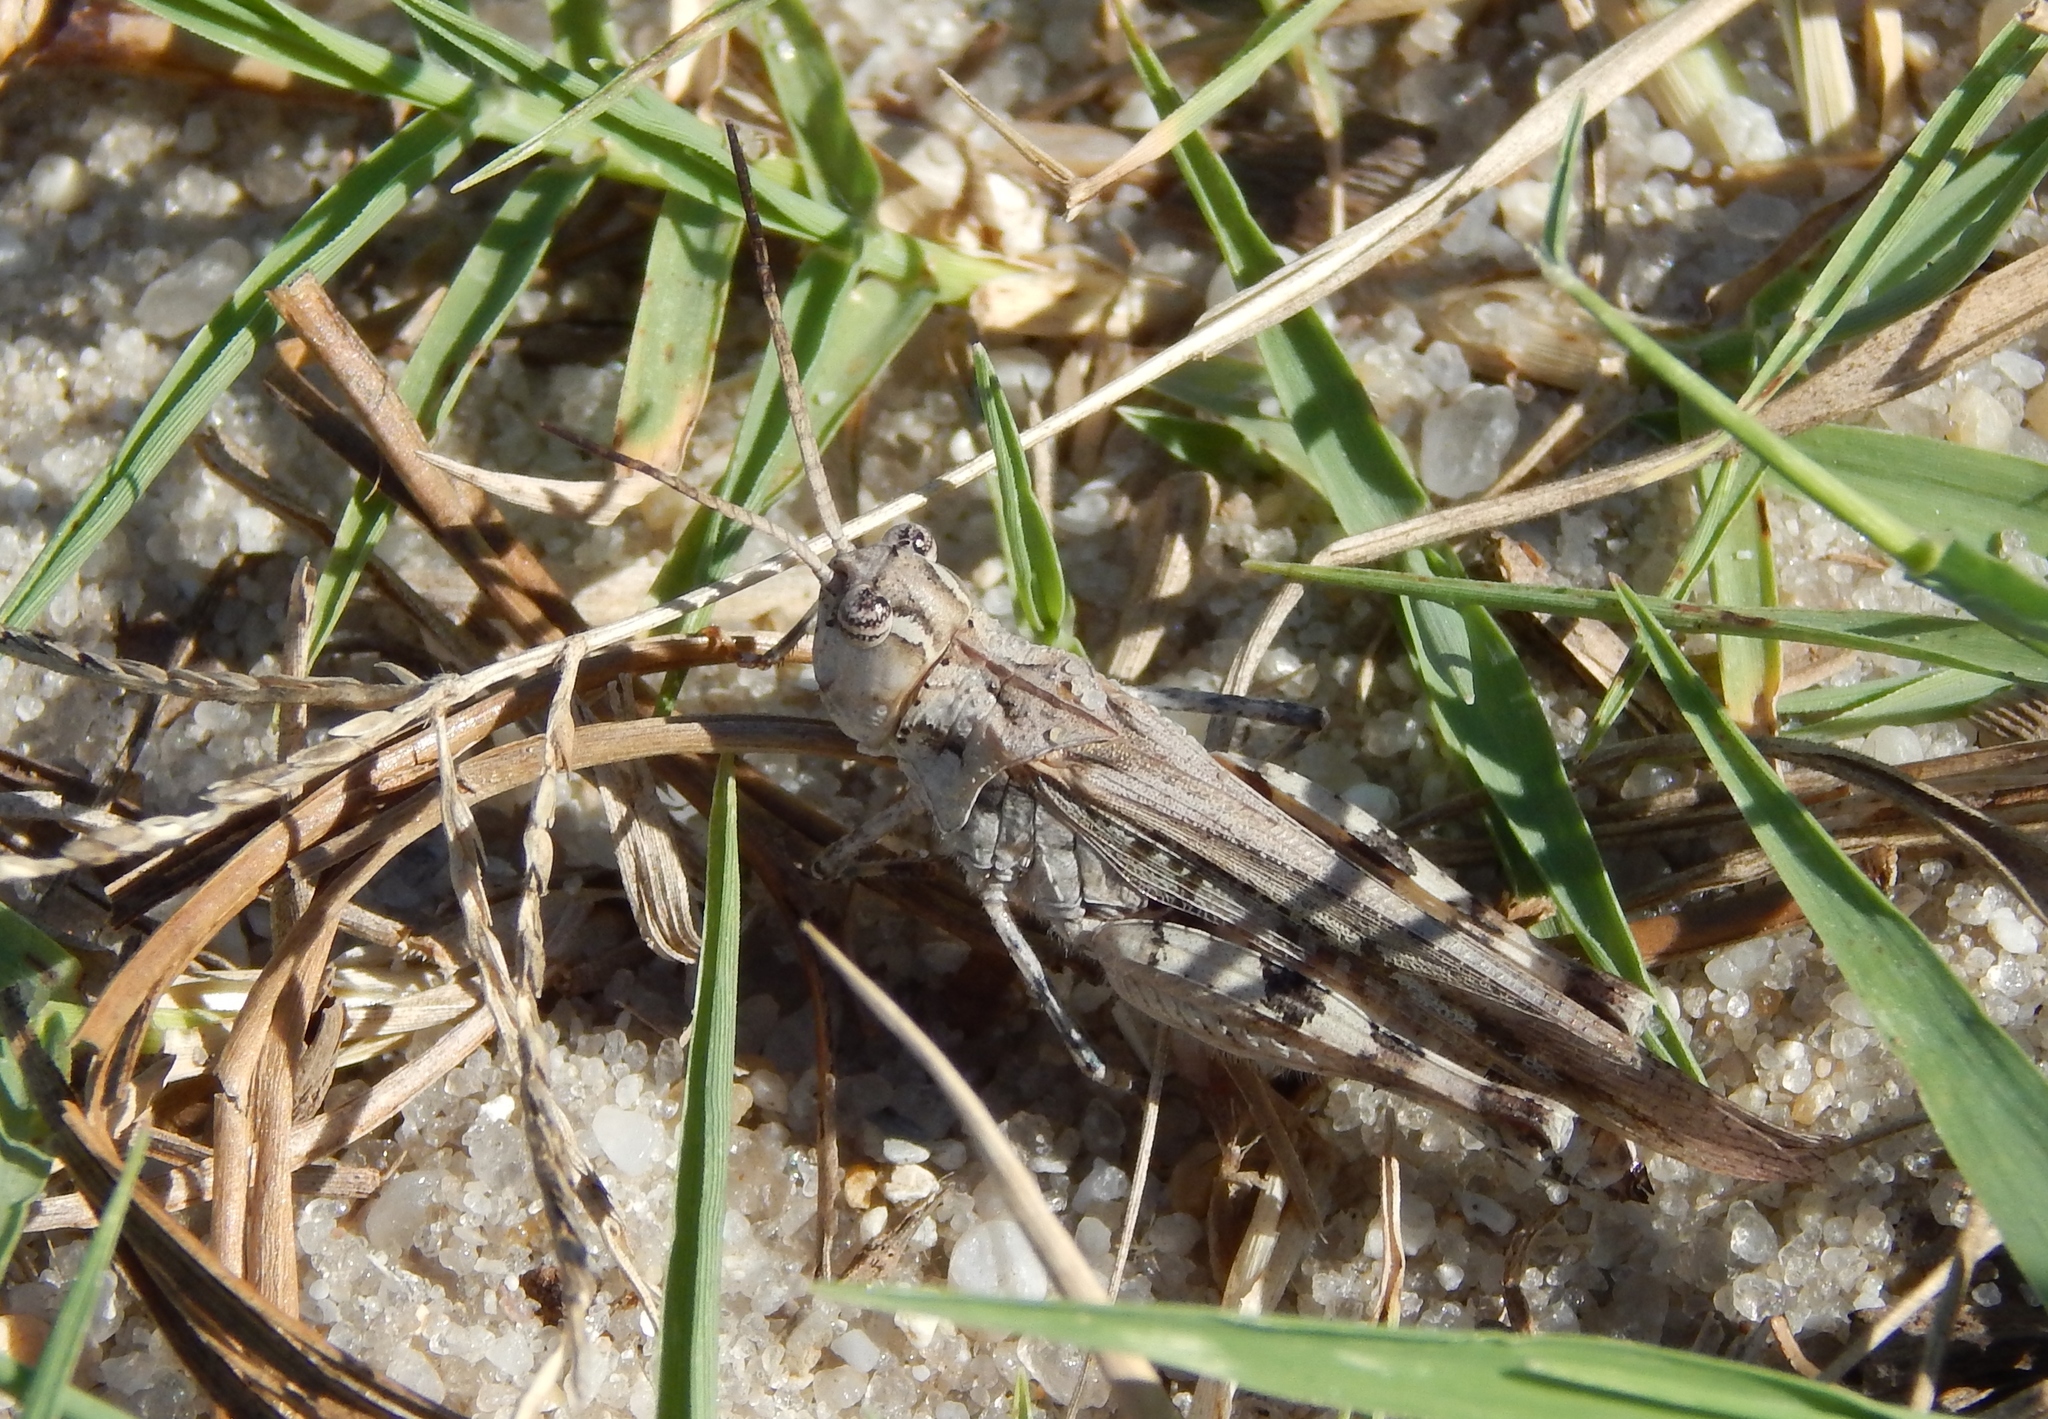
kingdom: Animalia
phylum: Arthropoda
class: Insecta
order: Orthoptera
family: Acrididae
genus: Psinidia
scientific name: Psinidia fenestralis
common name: Long-horned locust
